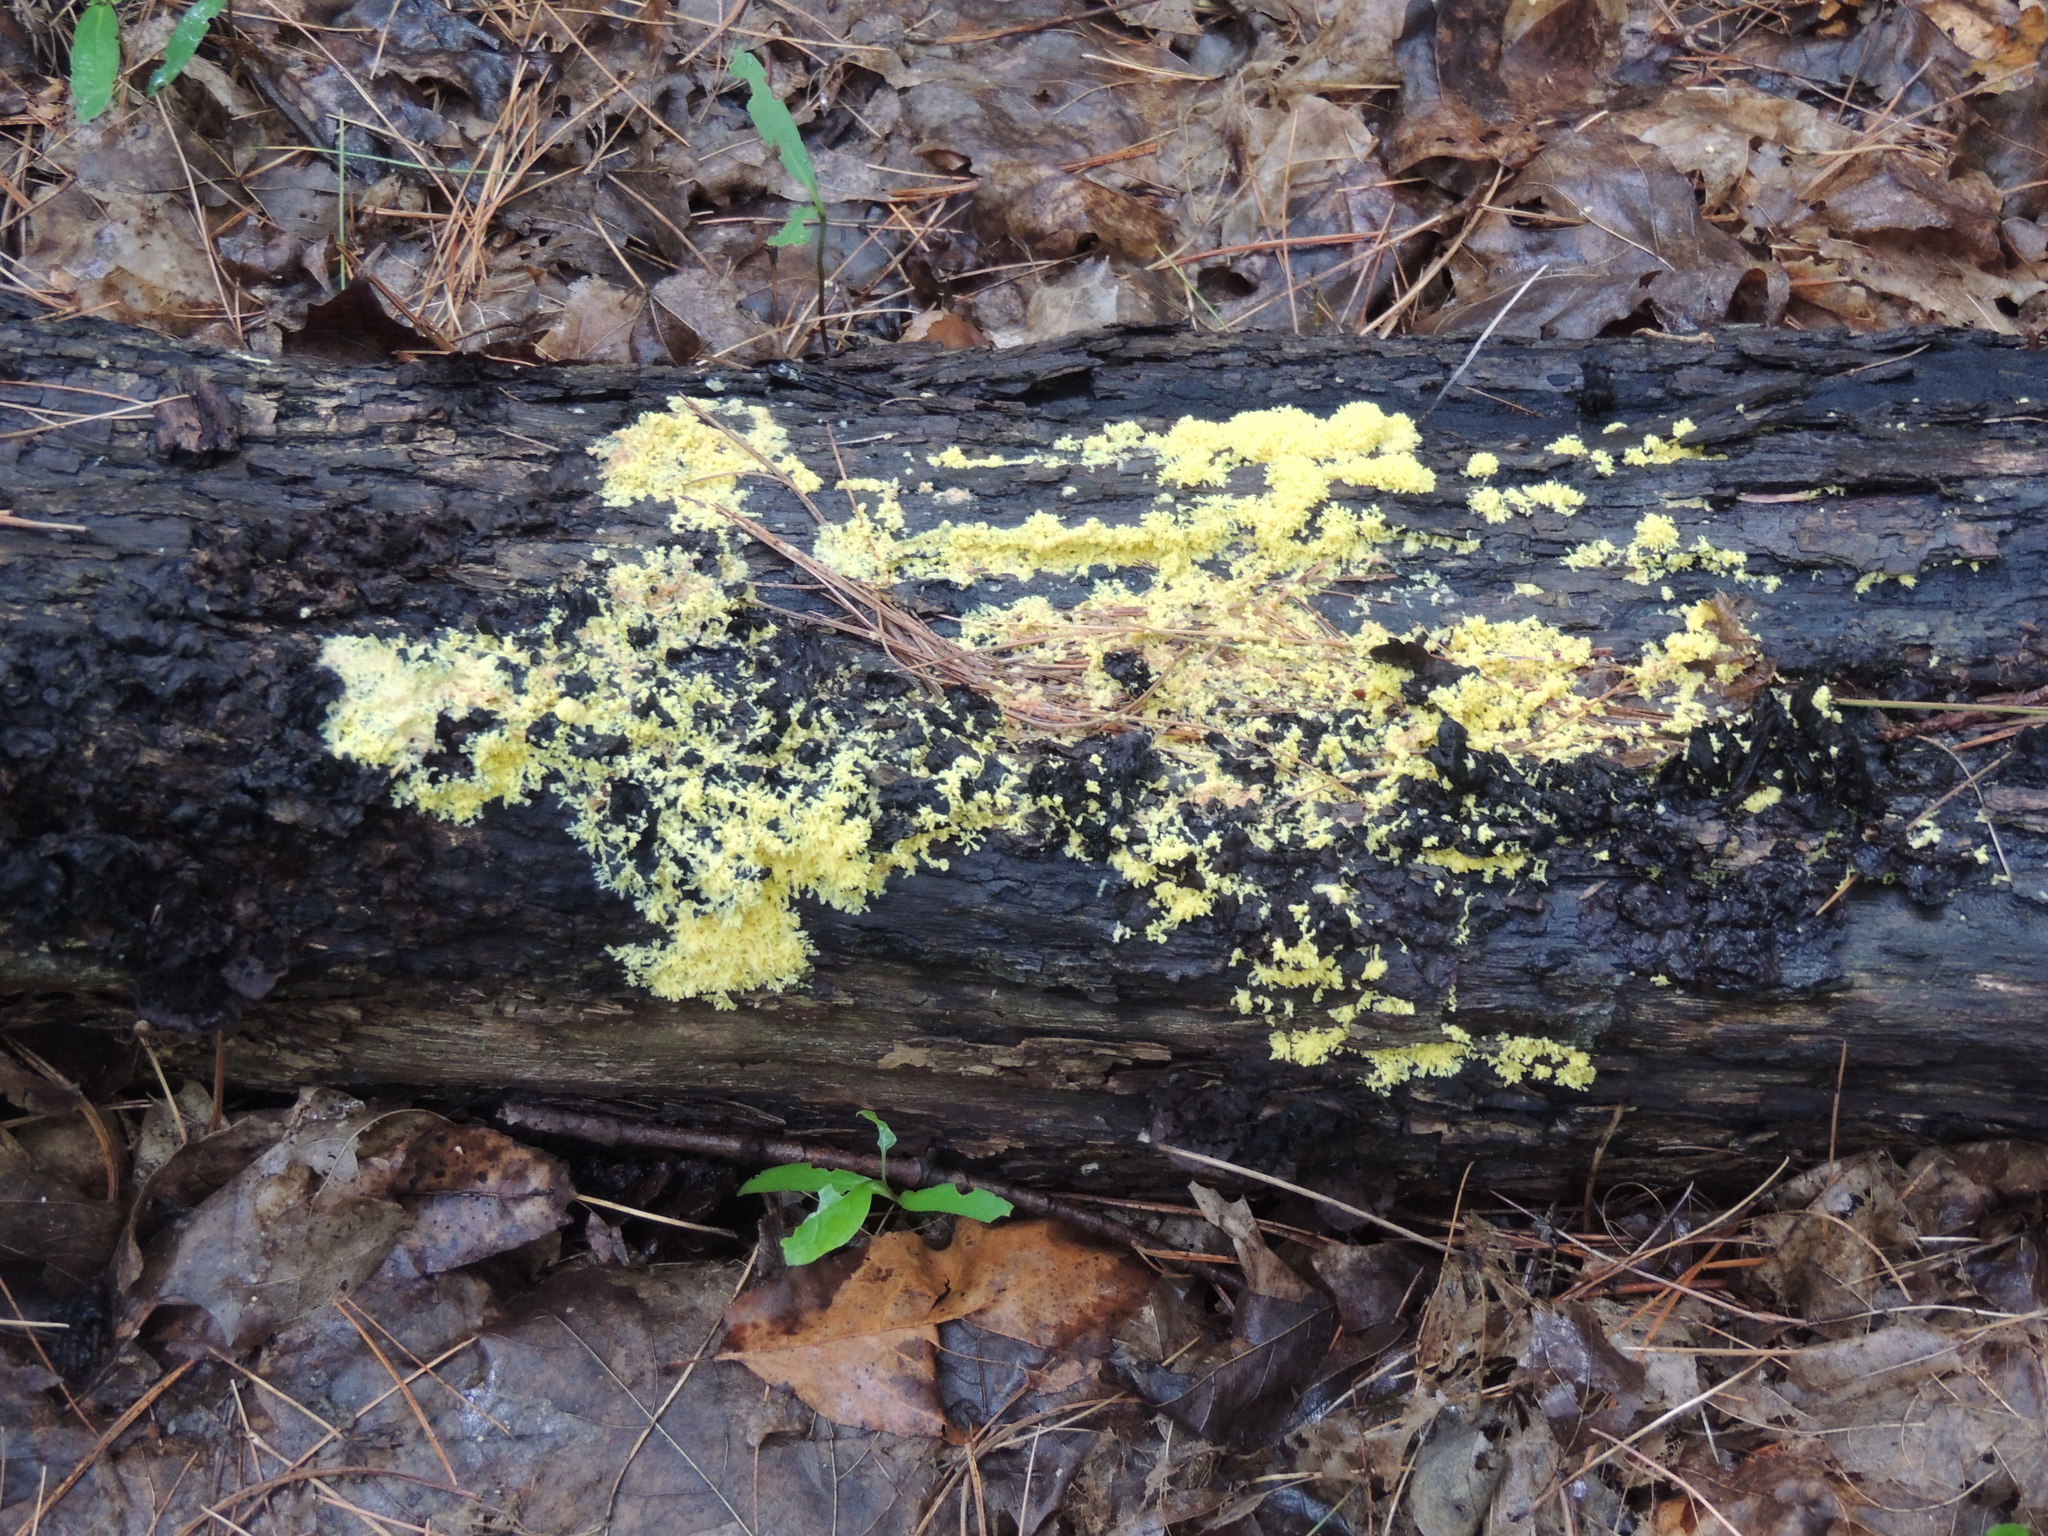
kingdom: Protozoa
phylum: Mycetozoa
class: Myxomycetes
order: Physarales
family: Physaraceae
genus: Fuligo
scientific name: Fuligo septica
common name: Dog vomit slime mold
